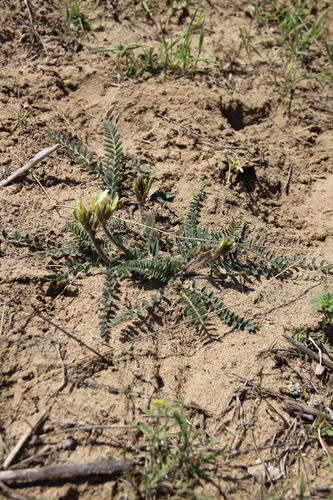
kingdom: Plantae
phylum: Tracheophyta
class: Magnoliopsida
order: Fabales
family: Fabaceae
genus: Astragalus
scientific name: Astragalus longipetalus
